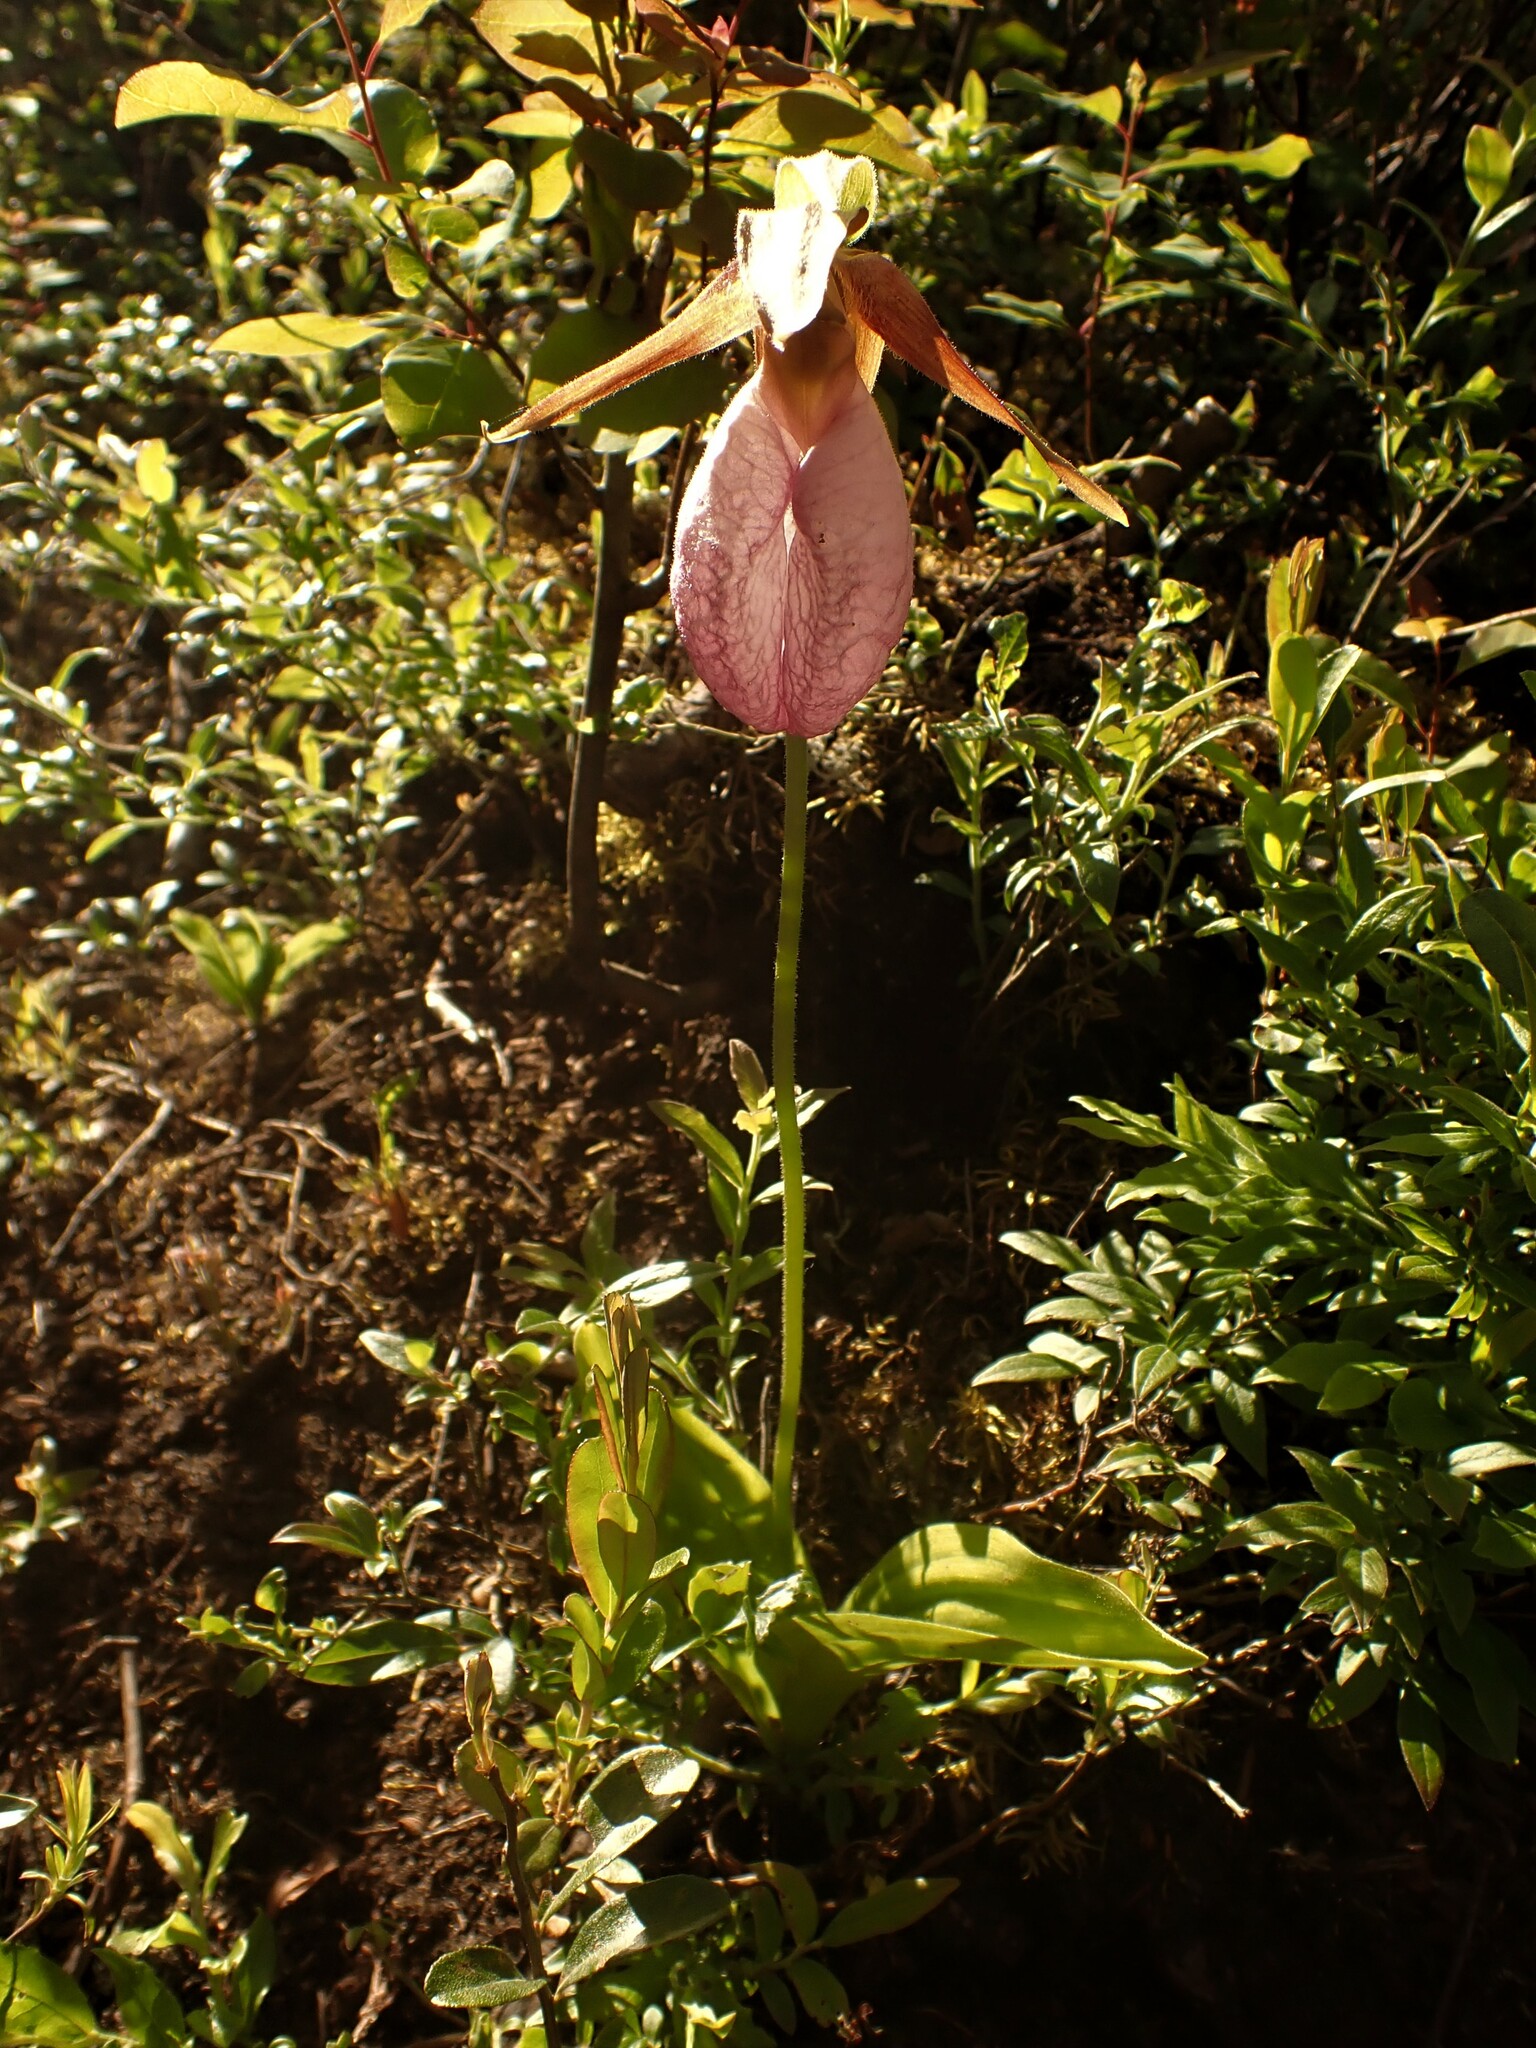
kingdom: Plantae
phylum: Tracheophyta
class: Liliopsida
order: Asparagales
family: Orchidaceae
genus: Cypripedium
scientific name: Cypripedium acaule
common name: Pink lady's-slipper
